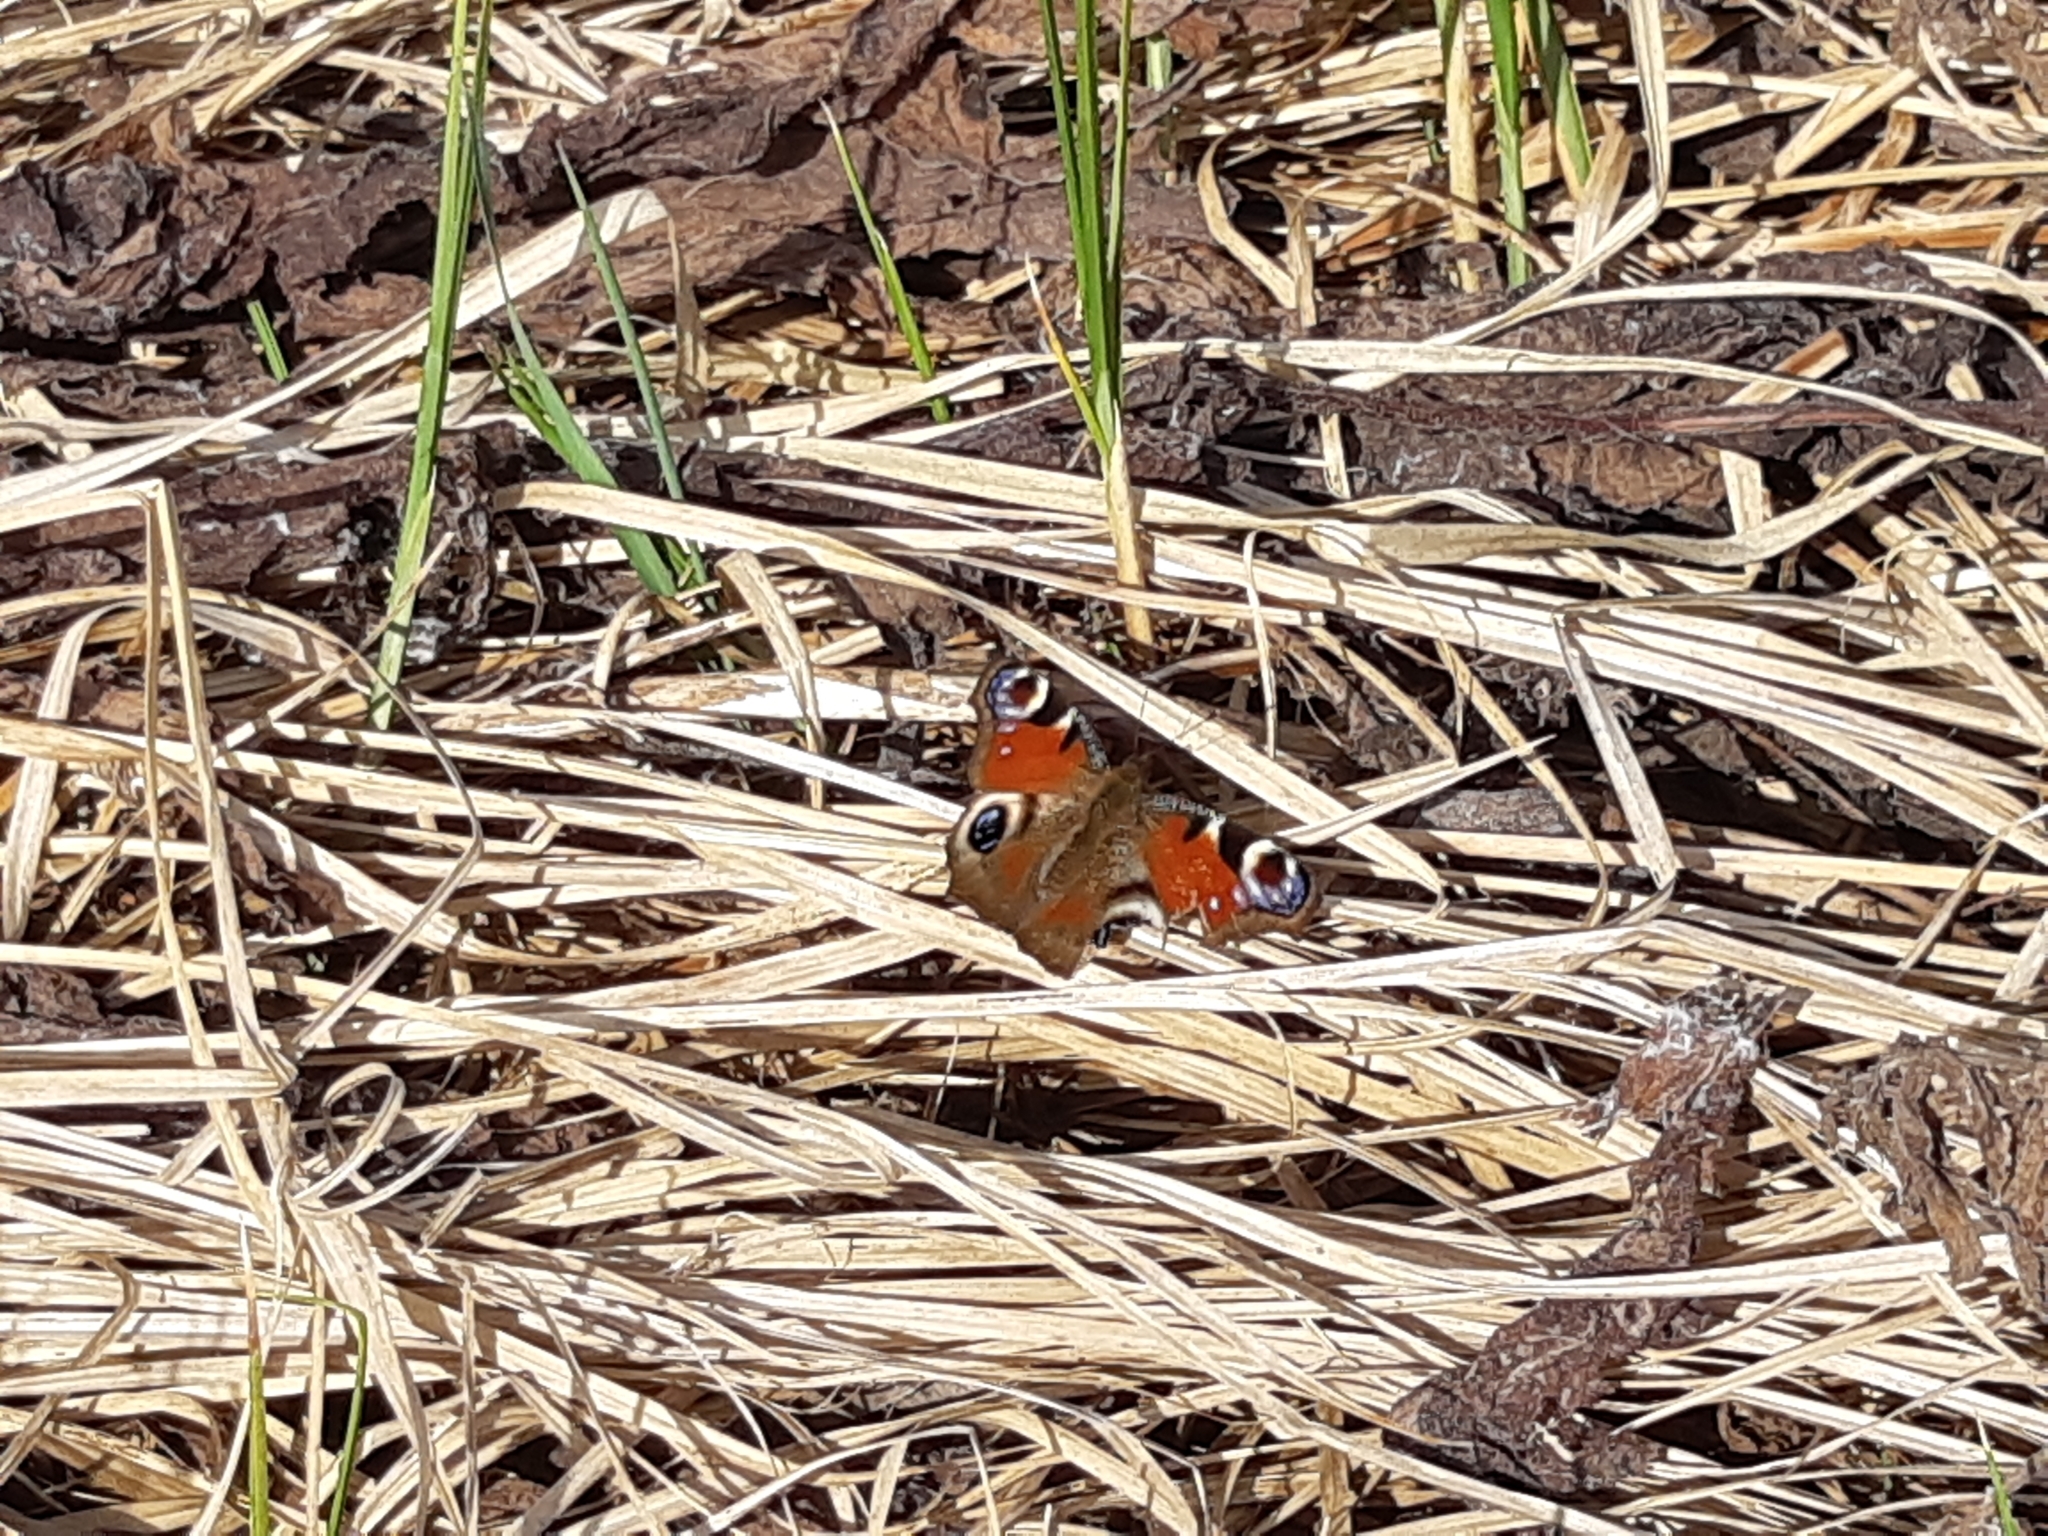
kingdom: Animalia
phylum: Arthropoda
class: Insecta
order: Lepidoptera
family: Nymphalidae
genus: Aglais
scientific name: Aglais io
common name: Peacock
